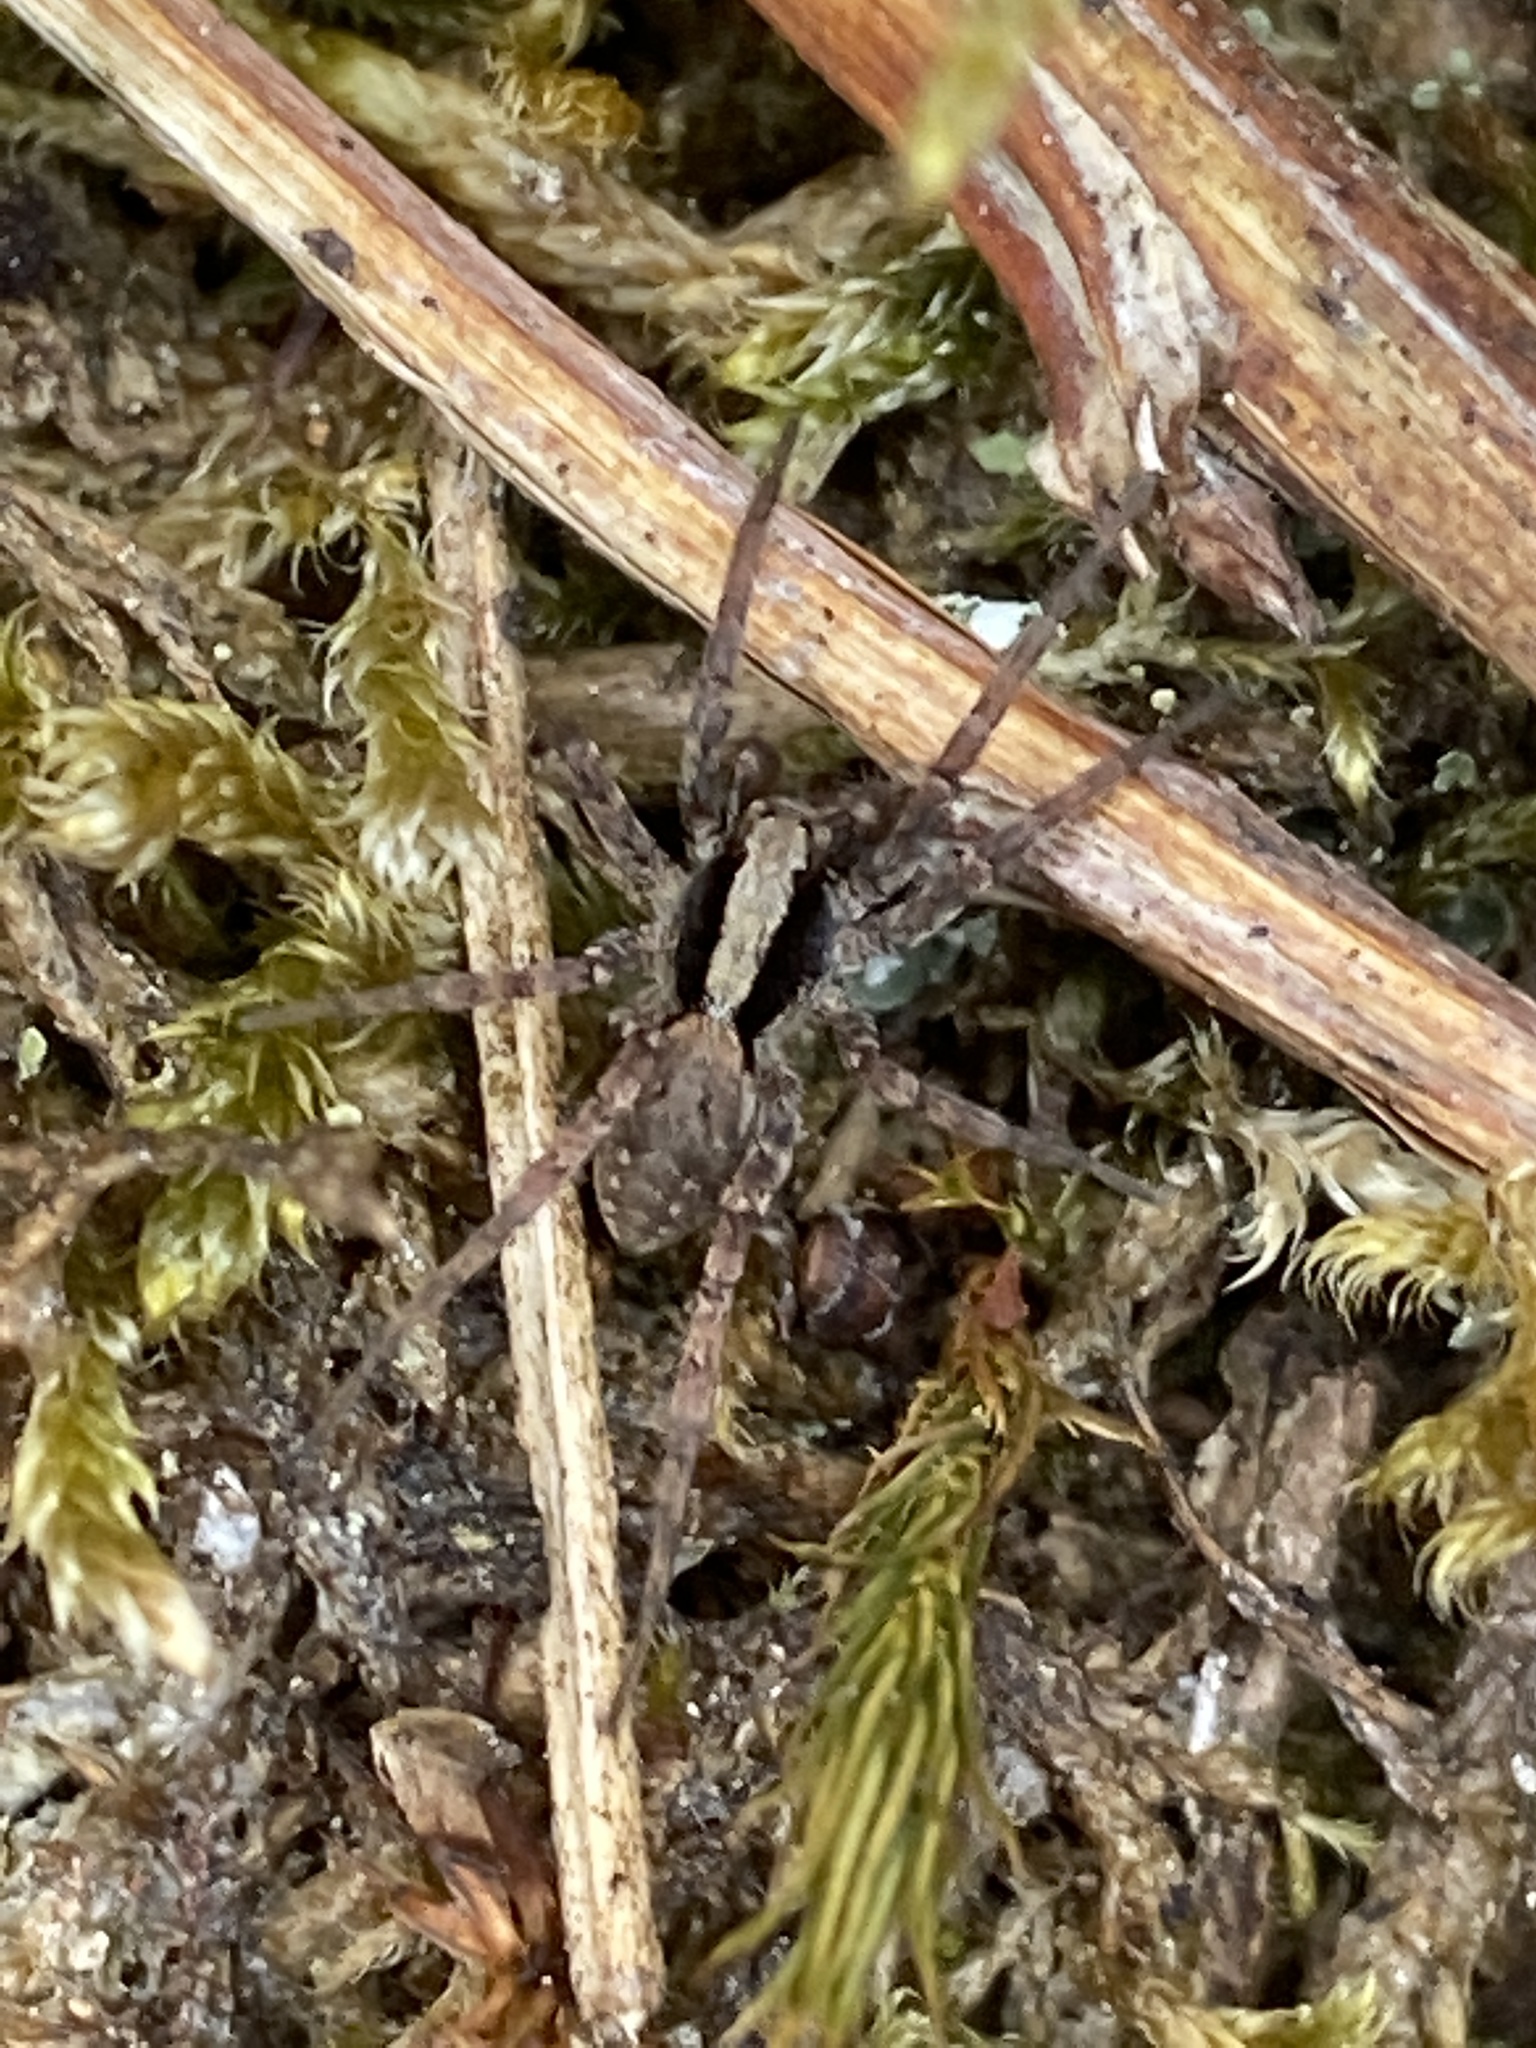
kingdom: Animalia
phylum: Arthropoda
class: Arachnida
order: Araneae
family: Lycosidae
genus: Xerolycosa
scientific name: Xerolycosa nemoralis
